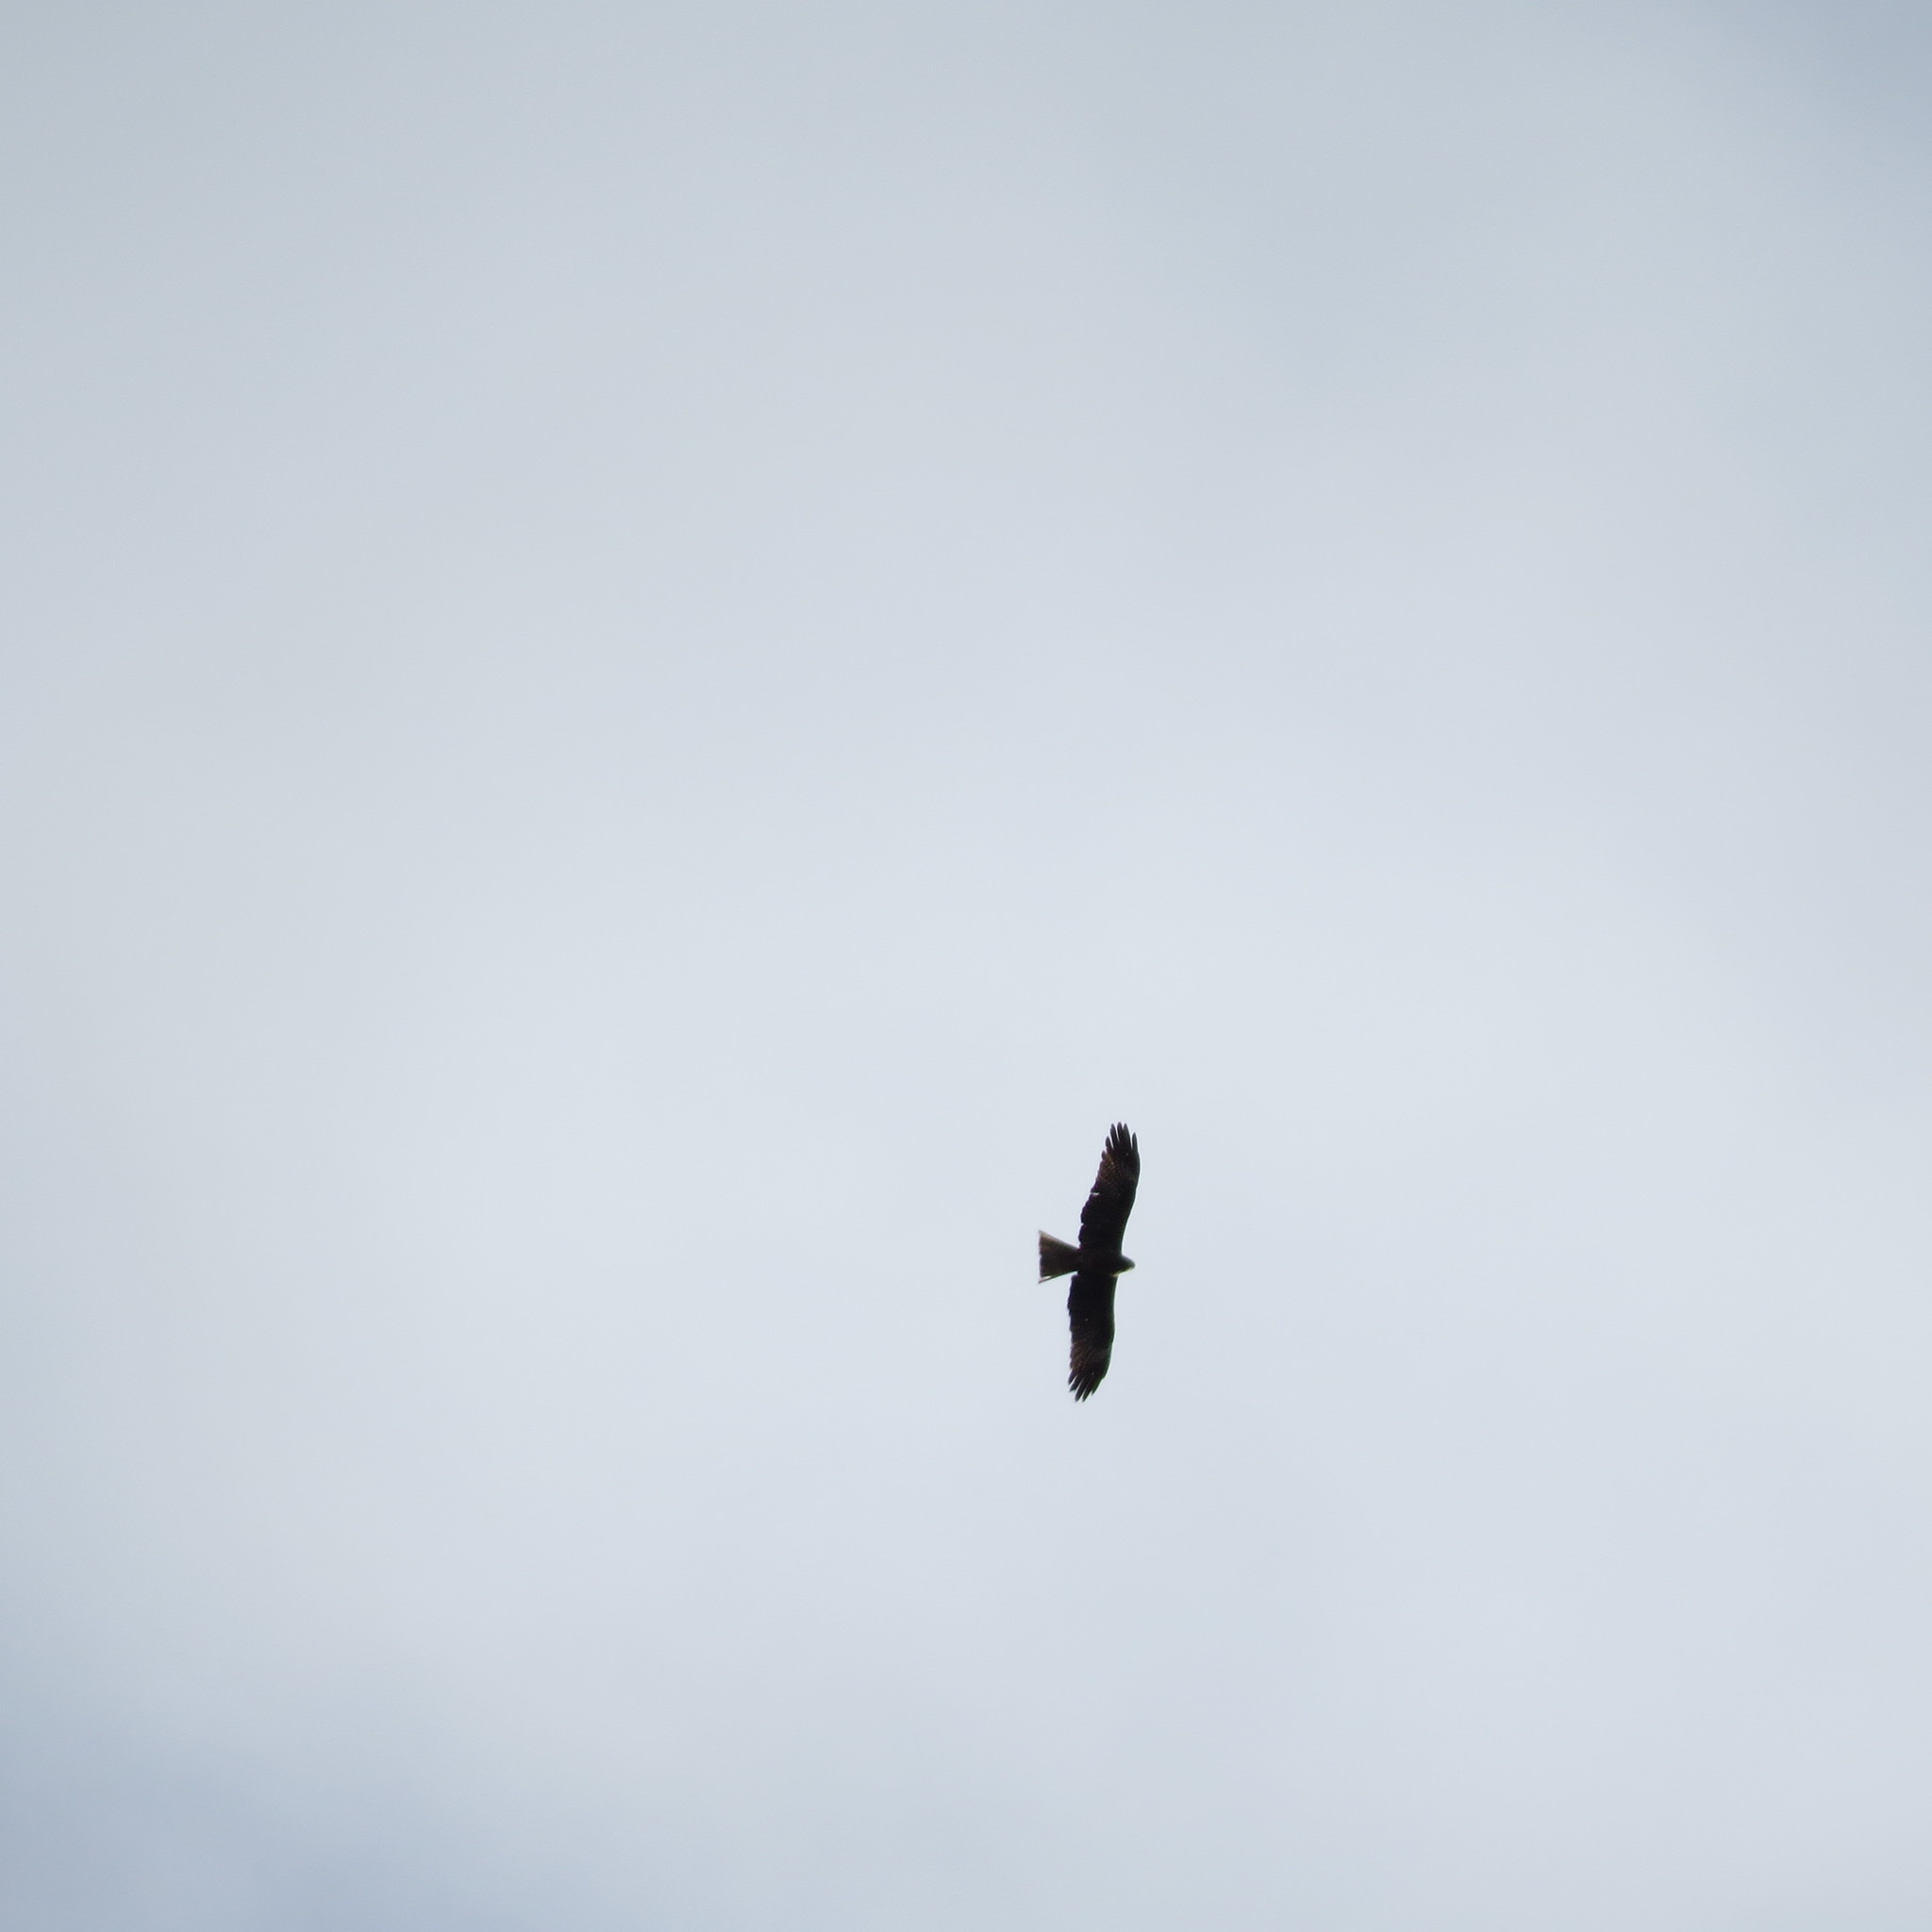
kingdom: Animalia
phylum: Chordata
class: Aves
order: Accipitriformes
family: Accipitridae
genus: Milvus
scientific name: Milvus migrans
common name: Black kite
